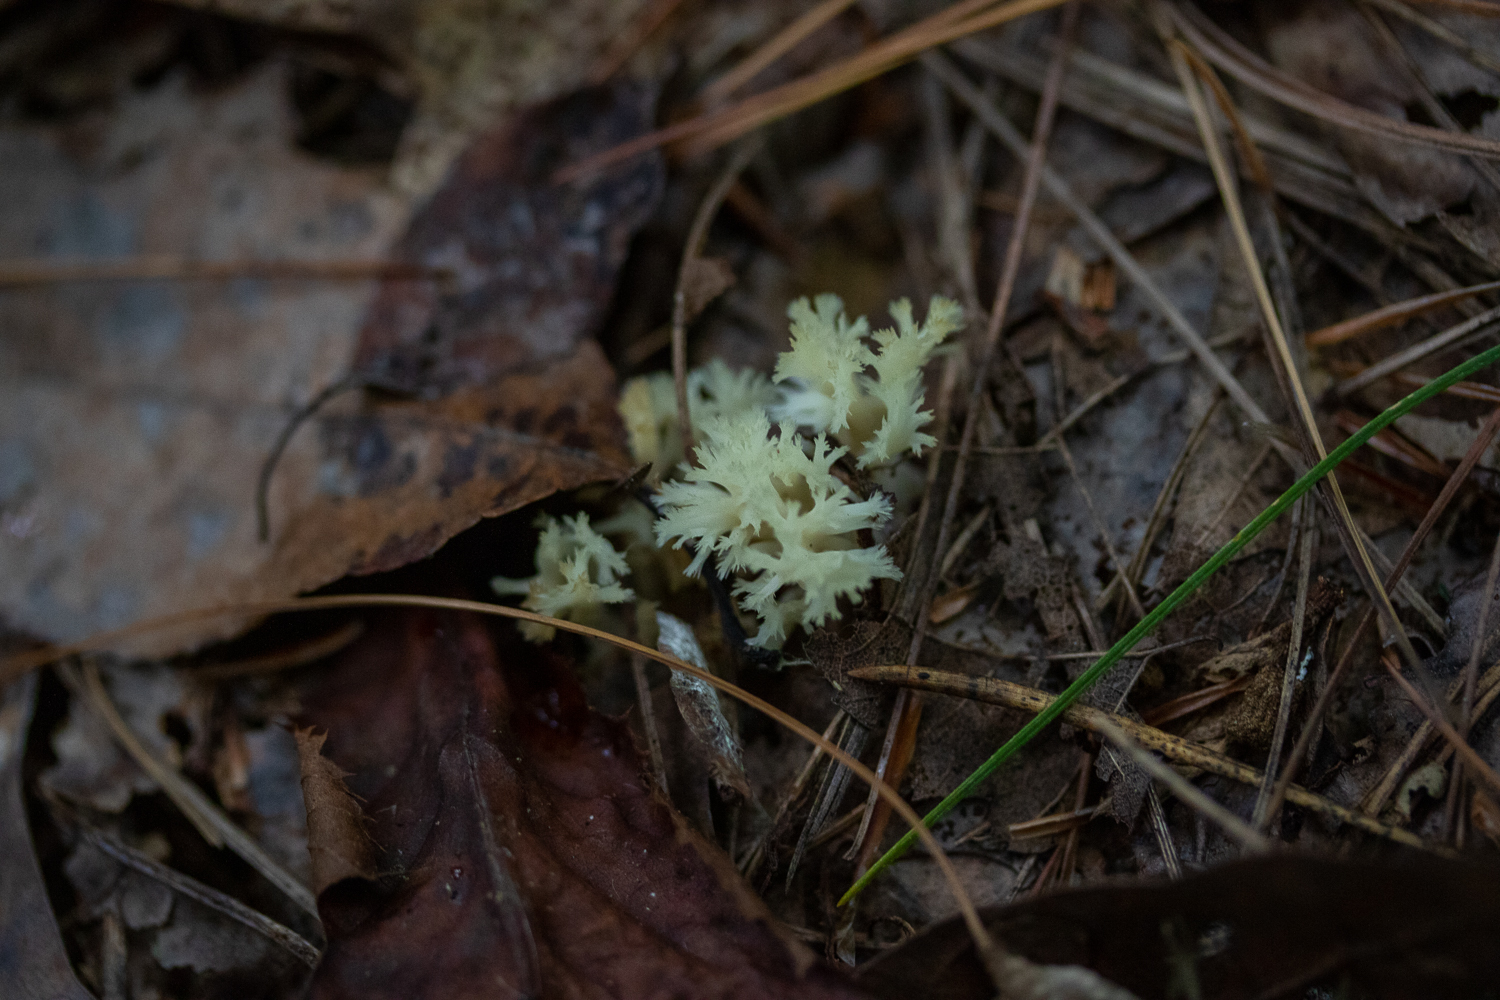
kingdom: Fungi
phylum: Basidiomycota
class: Agaricomycetes
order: Cantharellales
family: Hydnaceae
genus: Clavulina
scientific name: Clavulina coralloides
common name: Crested coral
